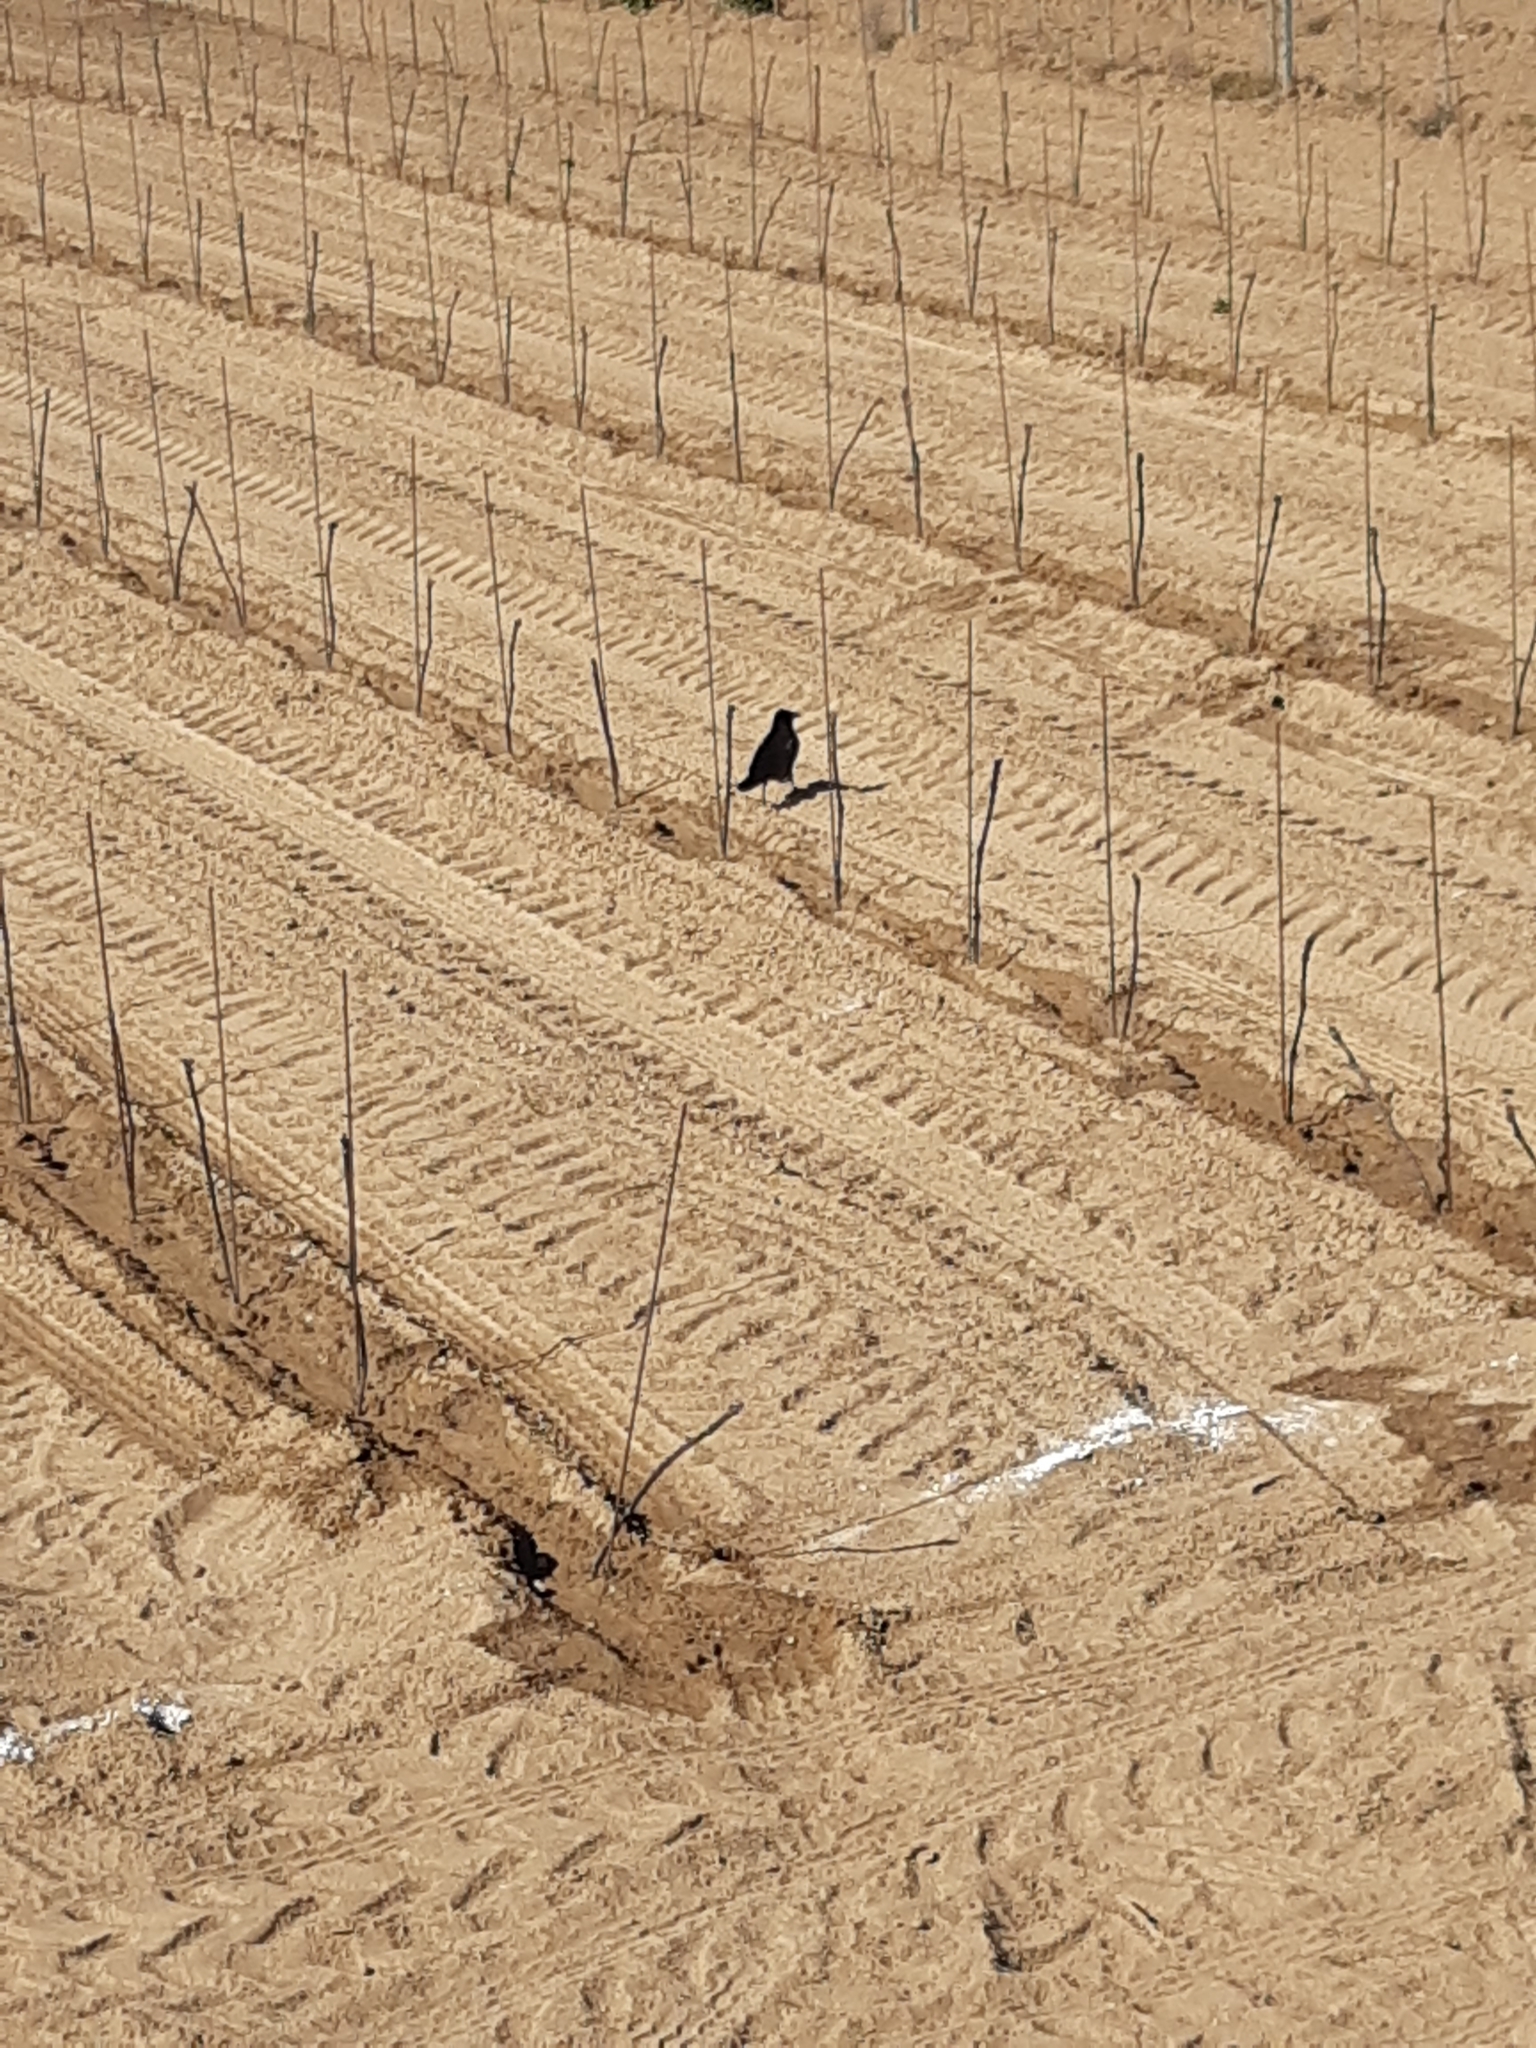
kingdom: Animalia
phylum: Chordata
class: Aves
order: Passeriformes
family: Corvidae
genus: Corvus
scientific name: Corvus corone
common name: Carrion crow
